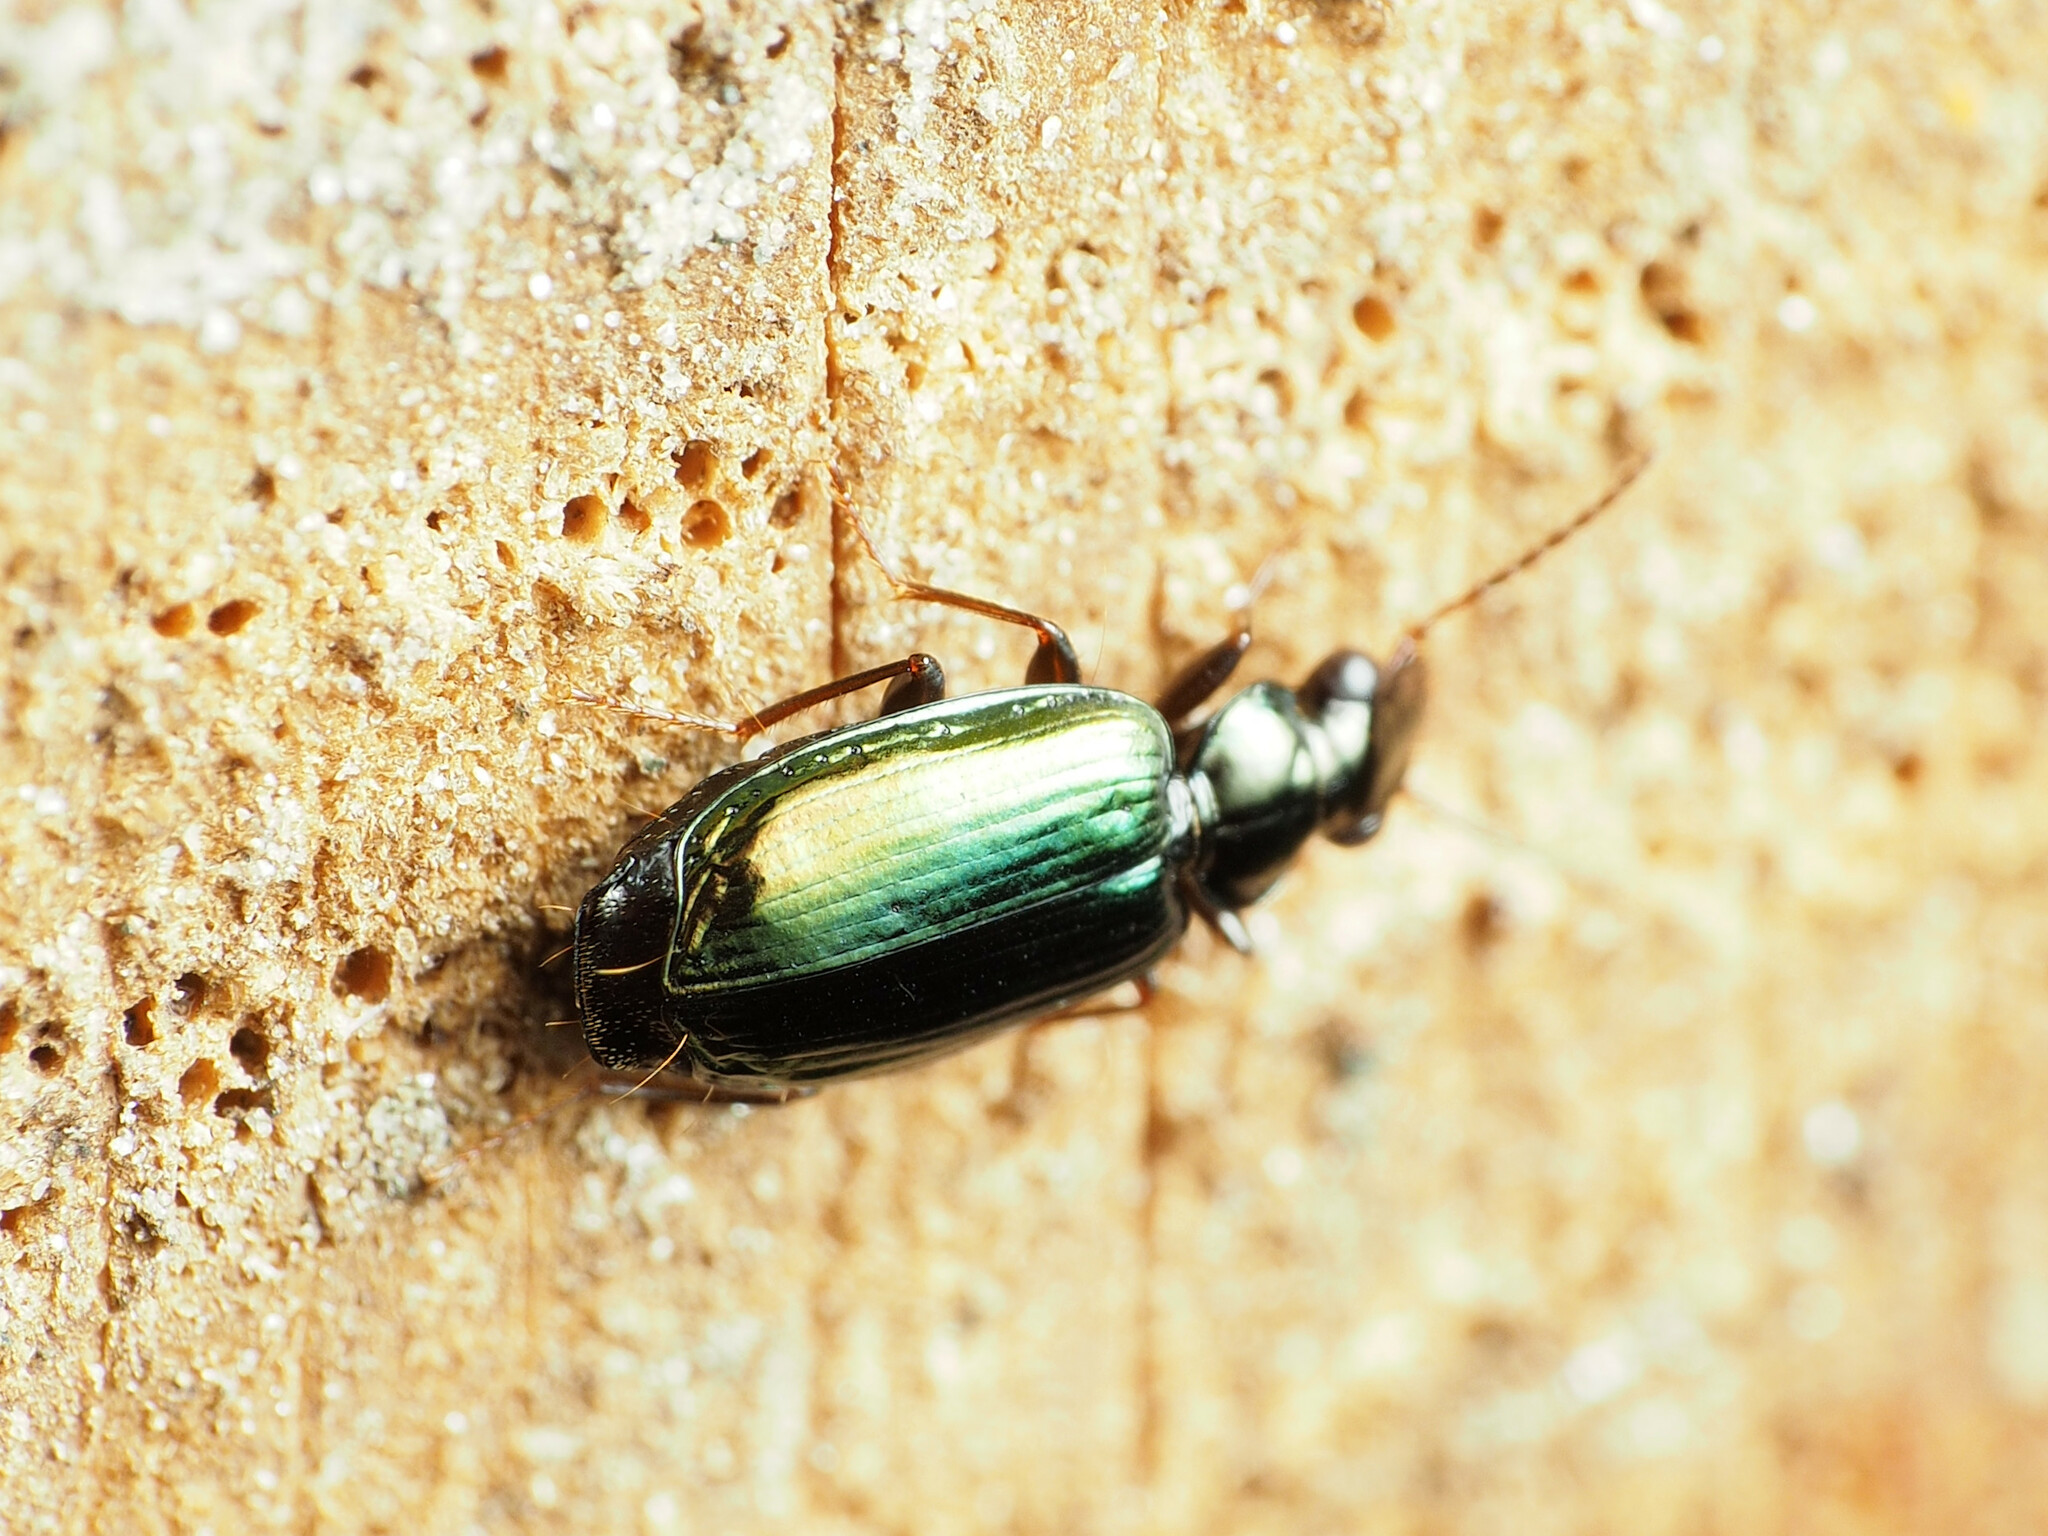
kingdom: Animalia
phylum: Arthropoda
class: Insecta
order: Coleoptera
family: Carabidae
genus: Coptodera
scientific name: Coptodera aerata
